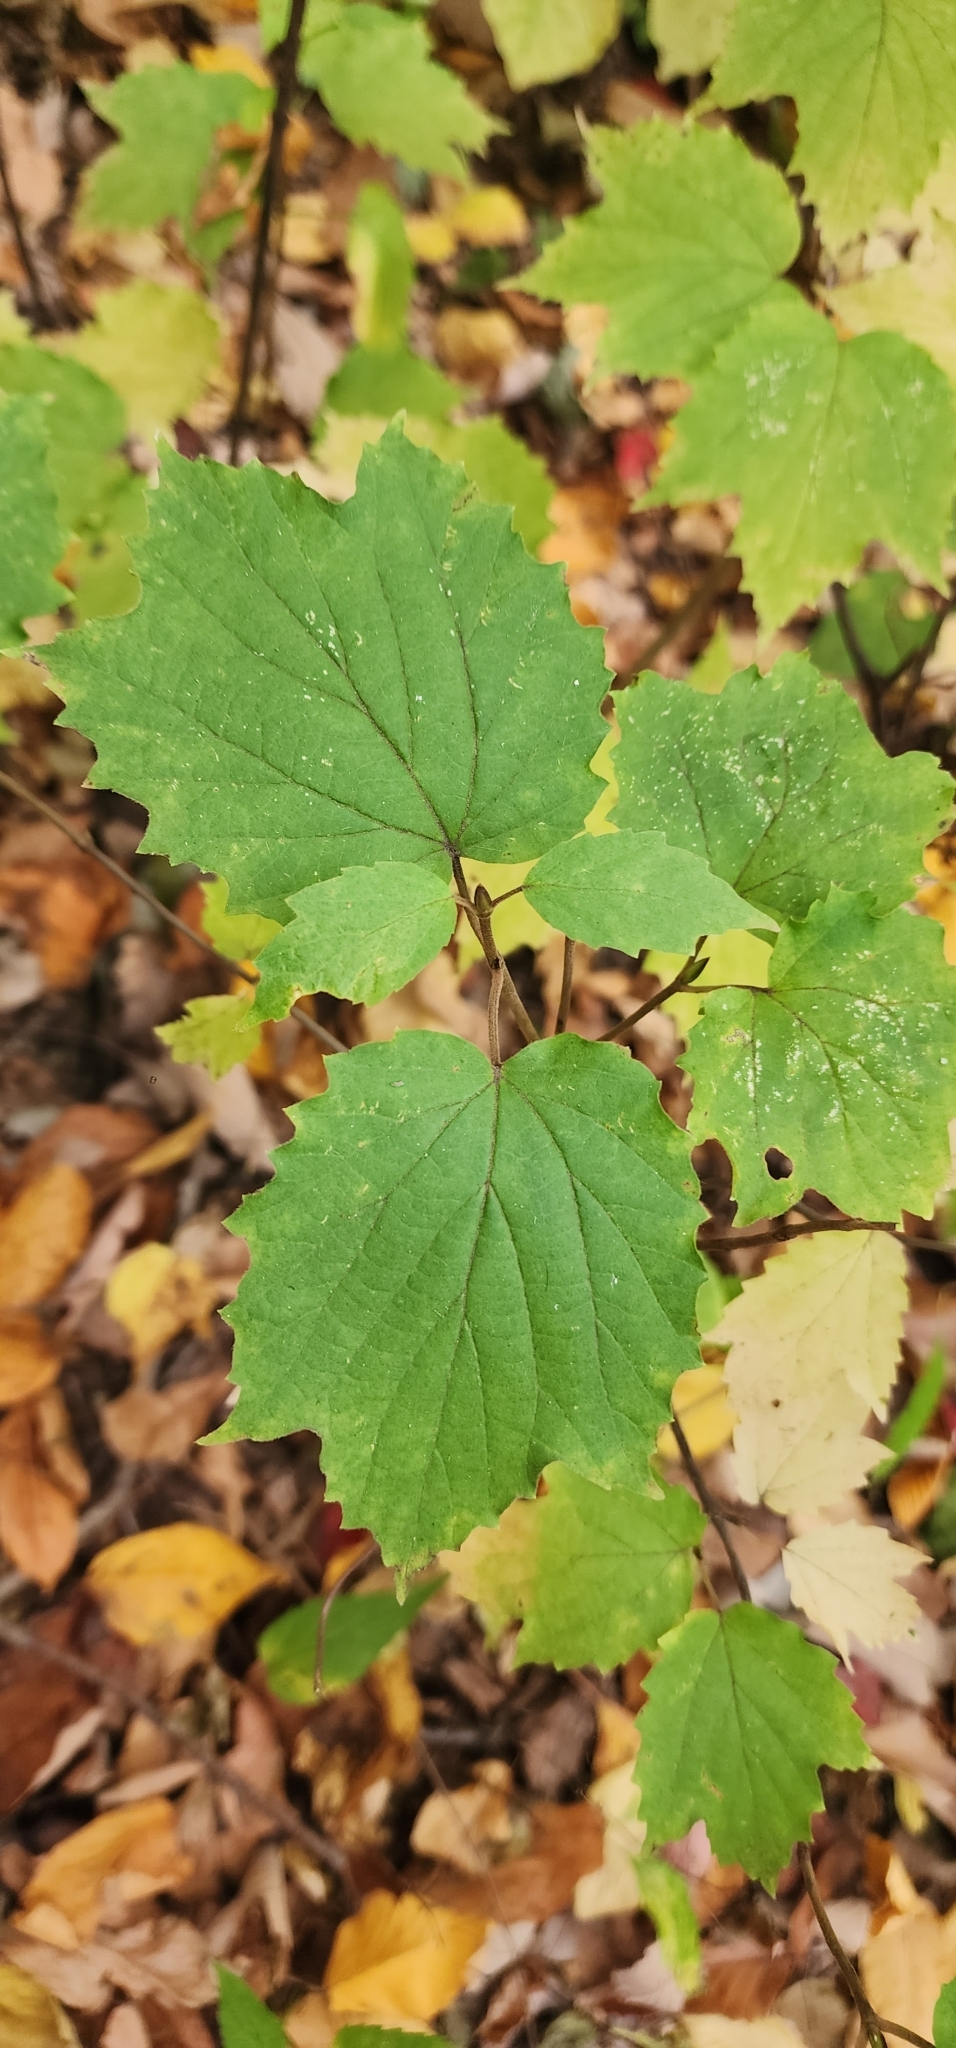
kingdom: Plantae
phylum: Tracheophyta
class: Magnoliopsida
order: Dipsacales
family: Viburnaceae
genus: Viburnum
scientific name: Viburnum acerifolium
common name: Dockmackie
